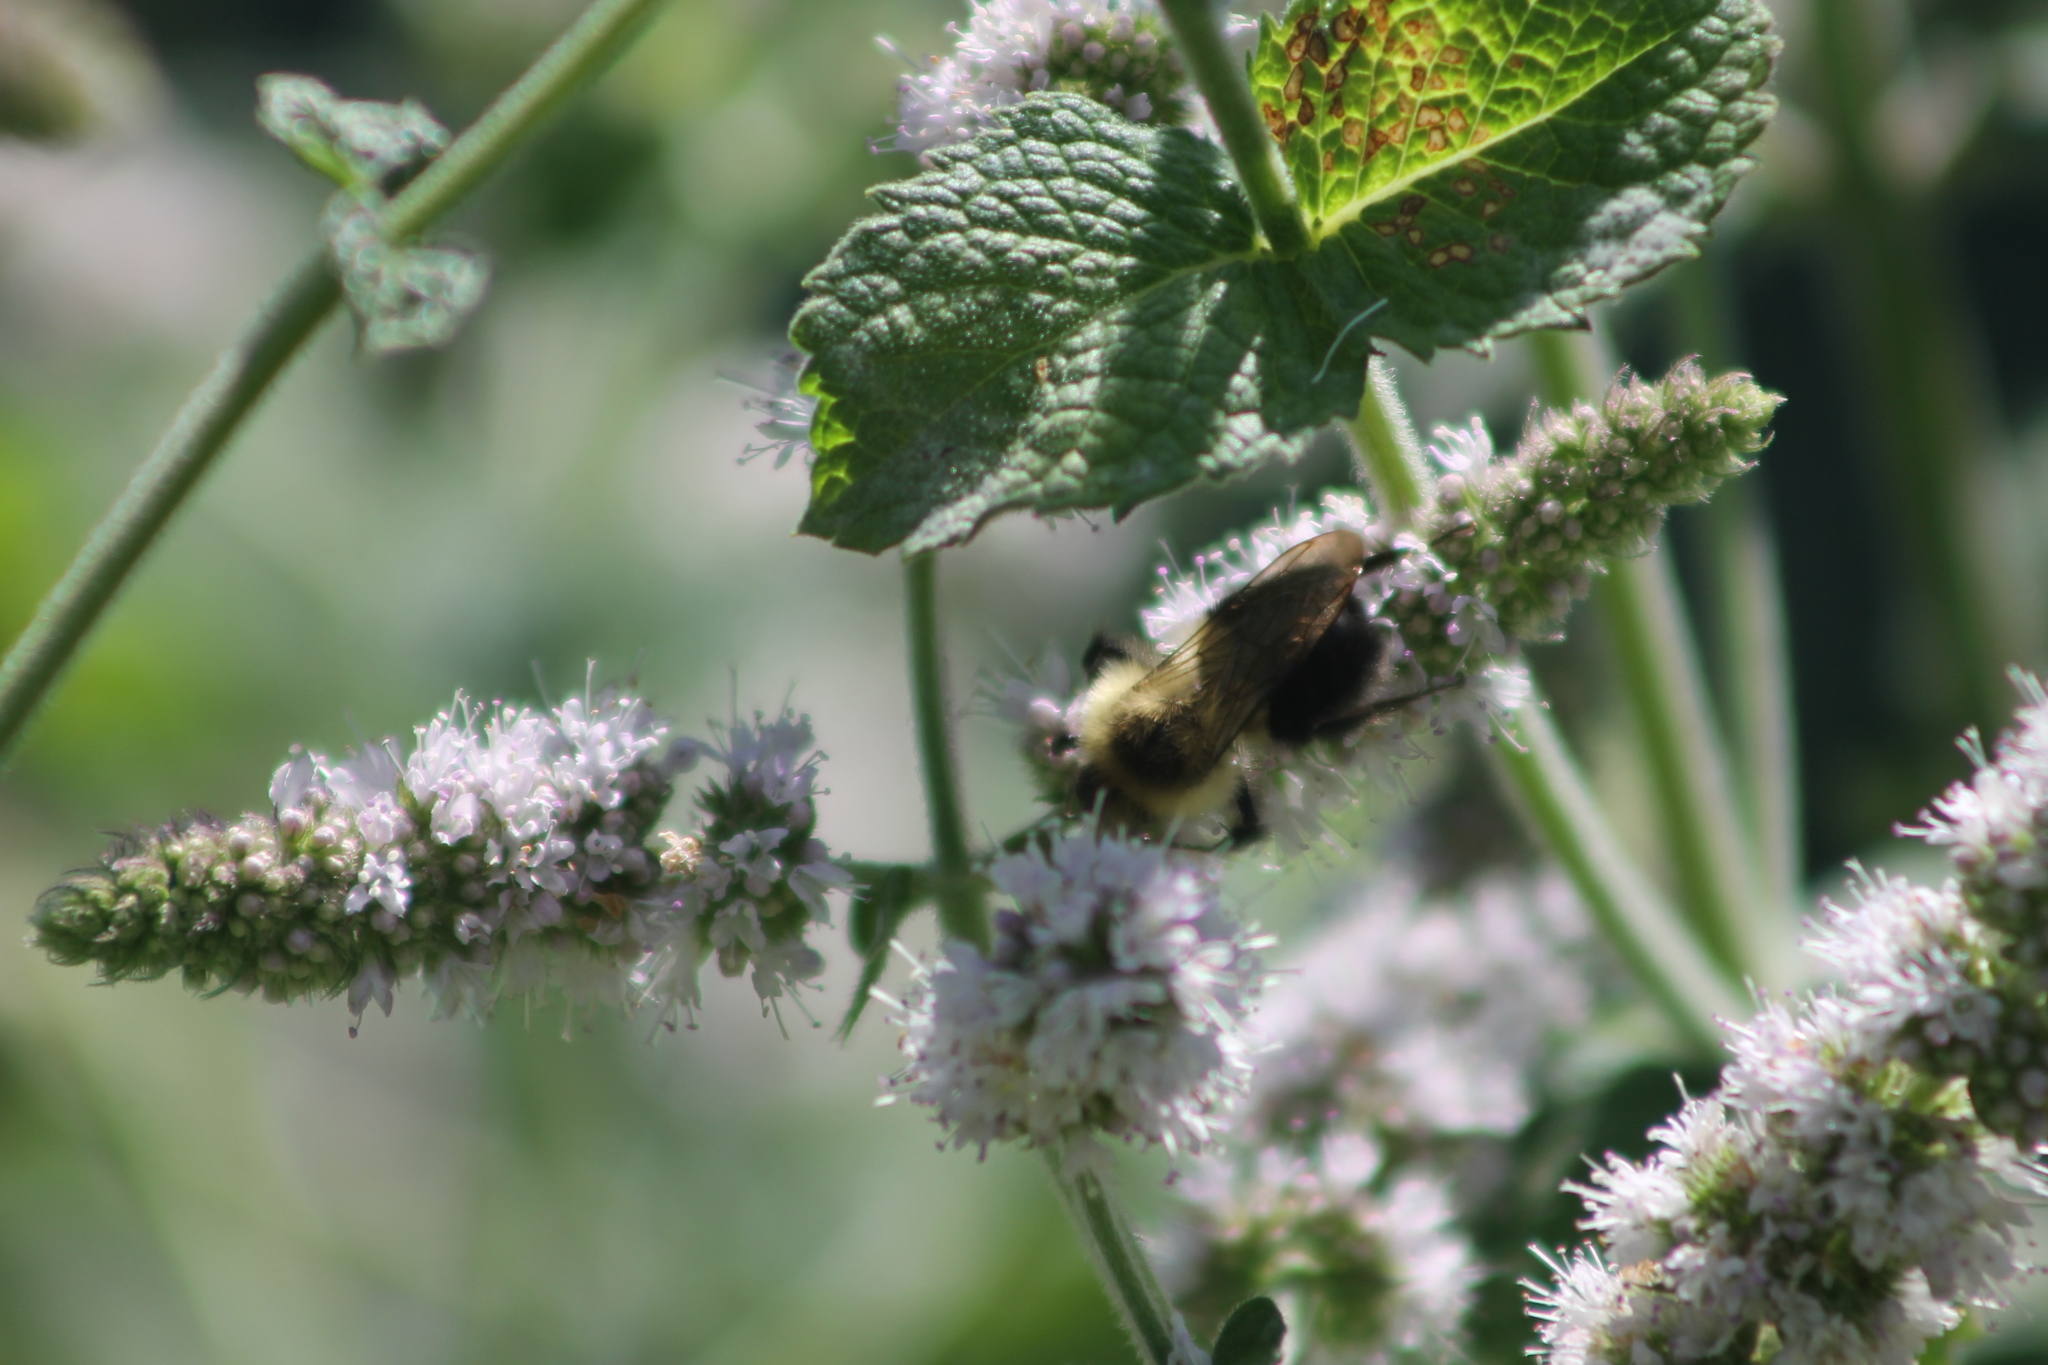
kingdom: Animalia
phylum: Arthropoda
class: Insecta
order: Hymenoptera
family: Apidae
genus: Bombus
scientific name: Bombus impatiens
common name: Common eastern bumble bee
